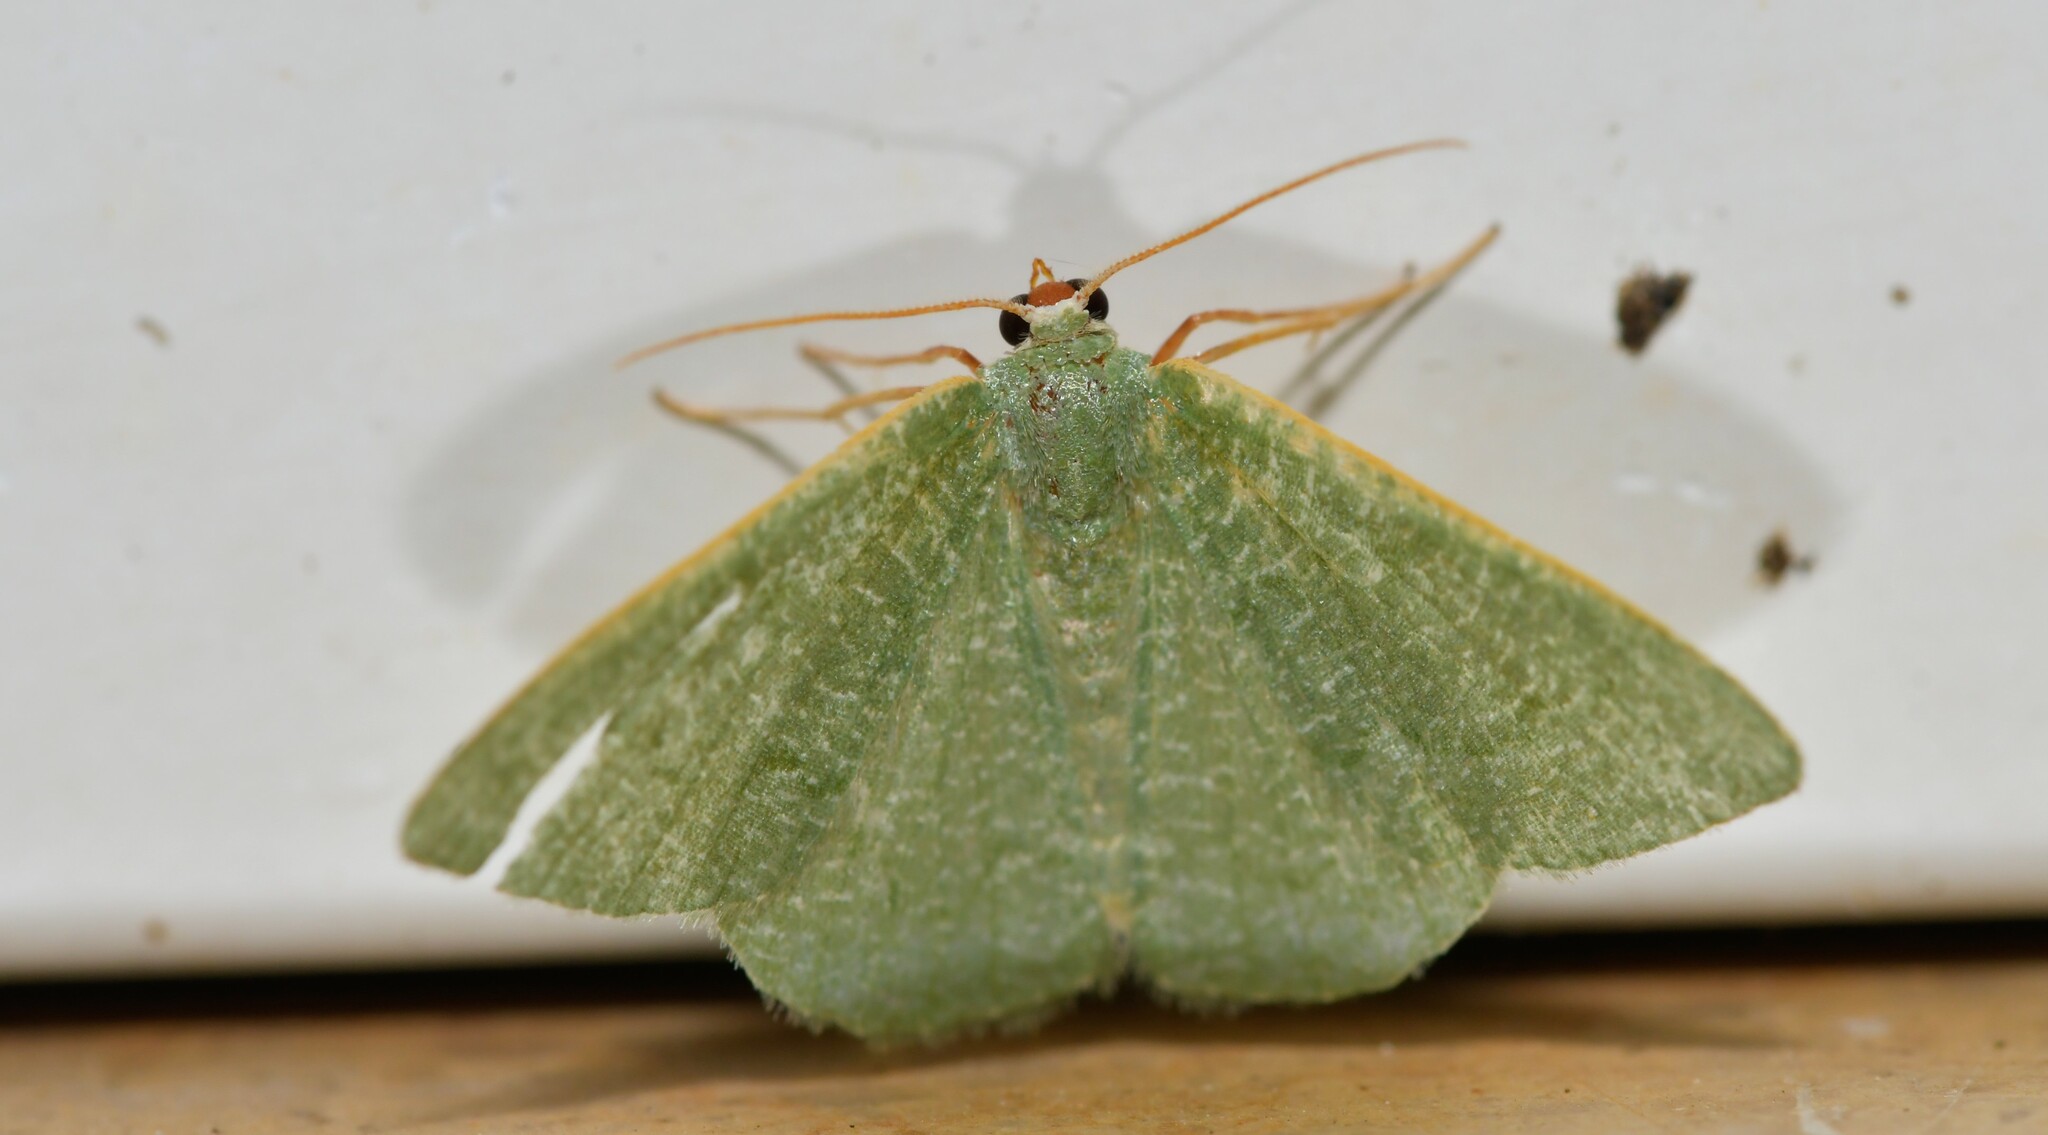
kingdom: Animalia
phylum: Arthropoda
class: Insecta
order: Lepidoptera
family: Geometridae
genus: Phaiogramma
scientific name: Phaiogramma faustinata
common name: Millière's emerald
